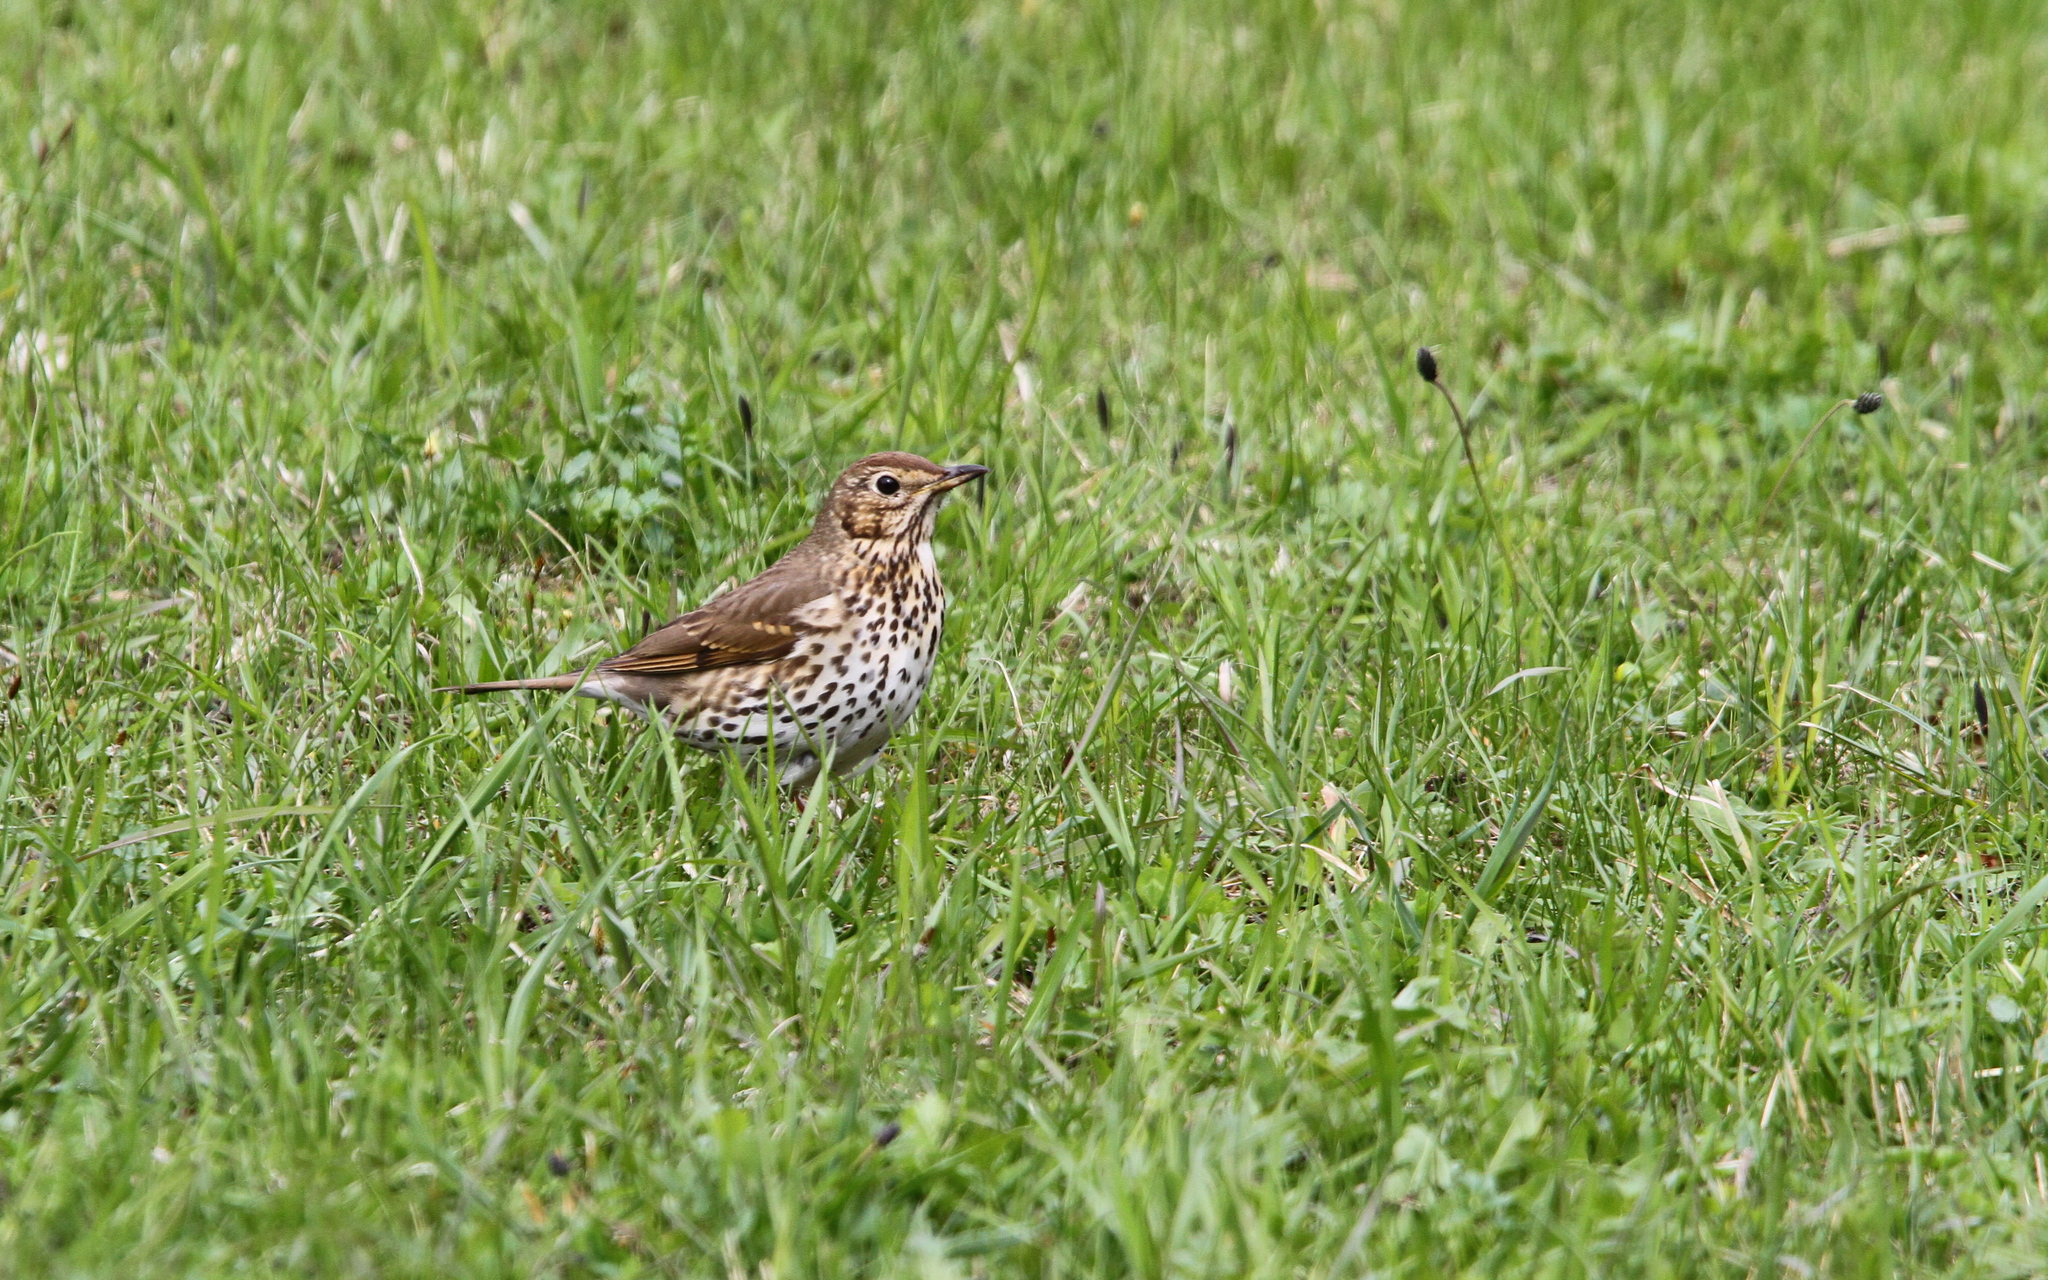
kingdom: Animalia
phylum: Chordata
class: Aves
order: Passeriformes
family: Turdidae
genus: Turdus
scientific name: Turdus philomelos
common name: Song thrush
